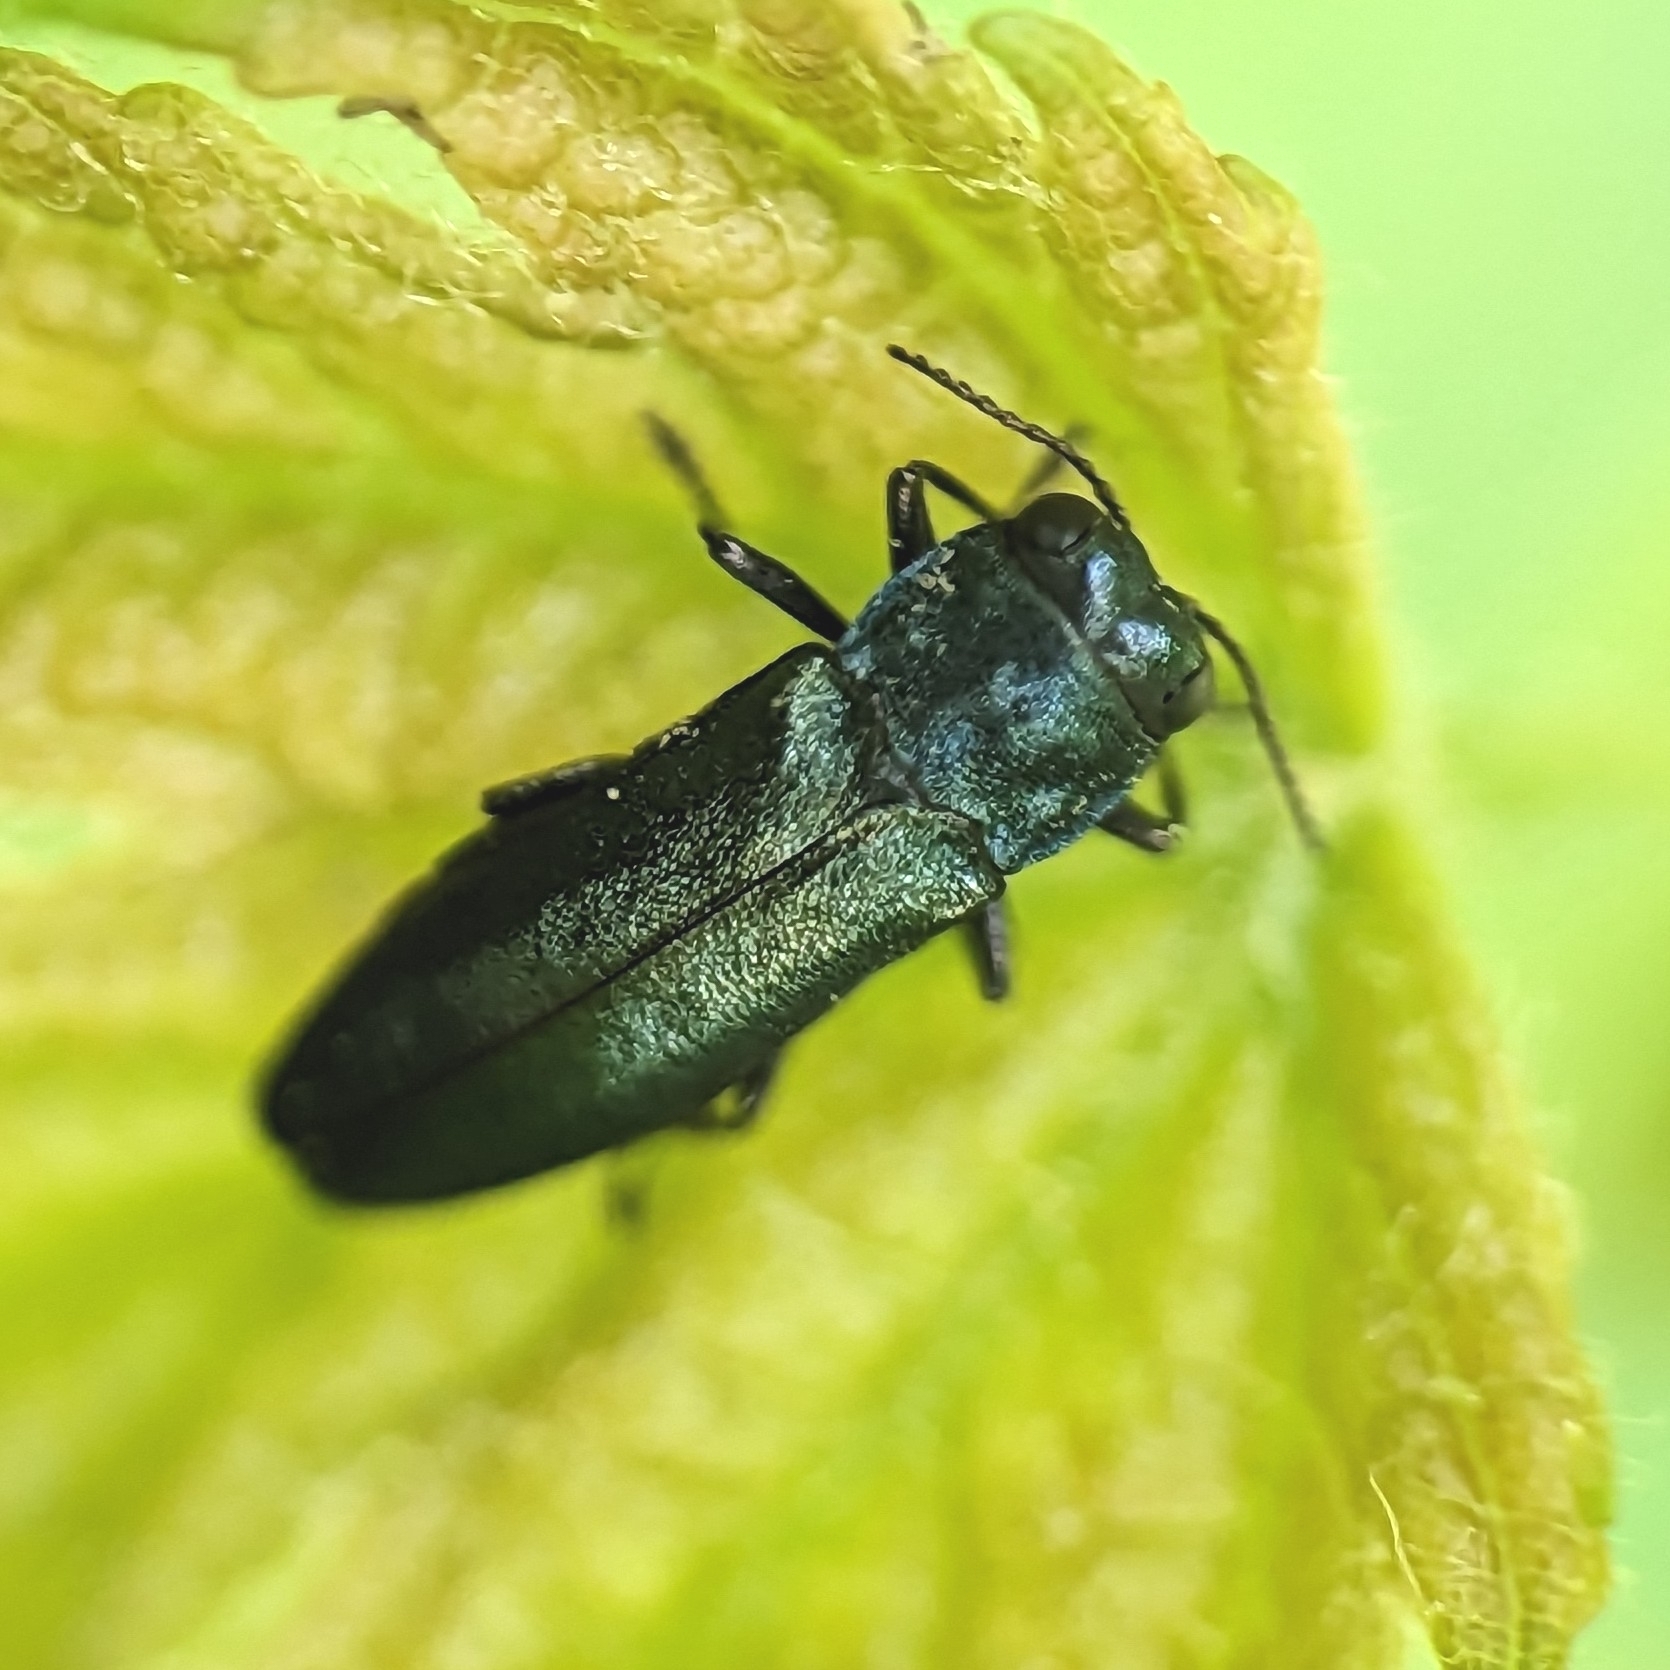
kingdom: Animalia
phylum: Arthropoda
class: Insecta
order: Coleoptera
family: Buprestidae
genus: Agrilus
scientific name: Agrilus cyanescens
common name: Bluish borer beetle
